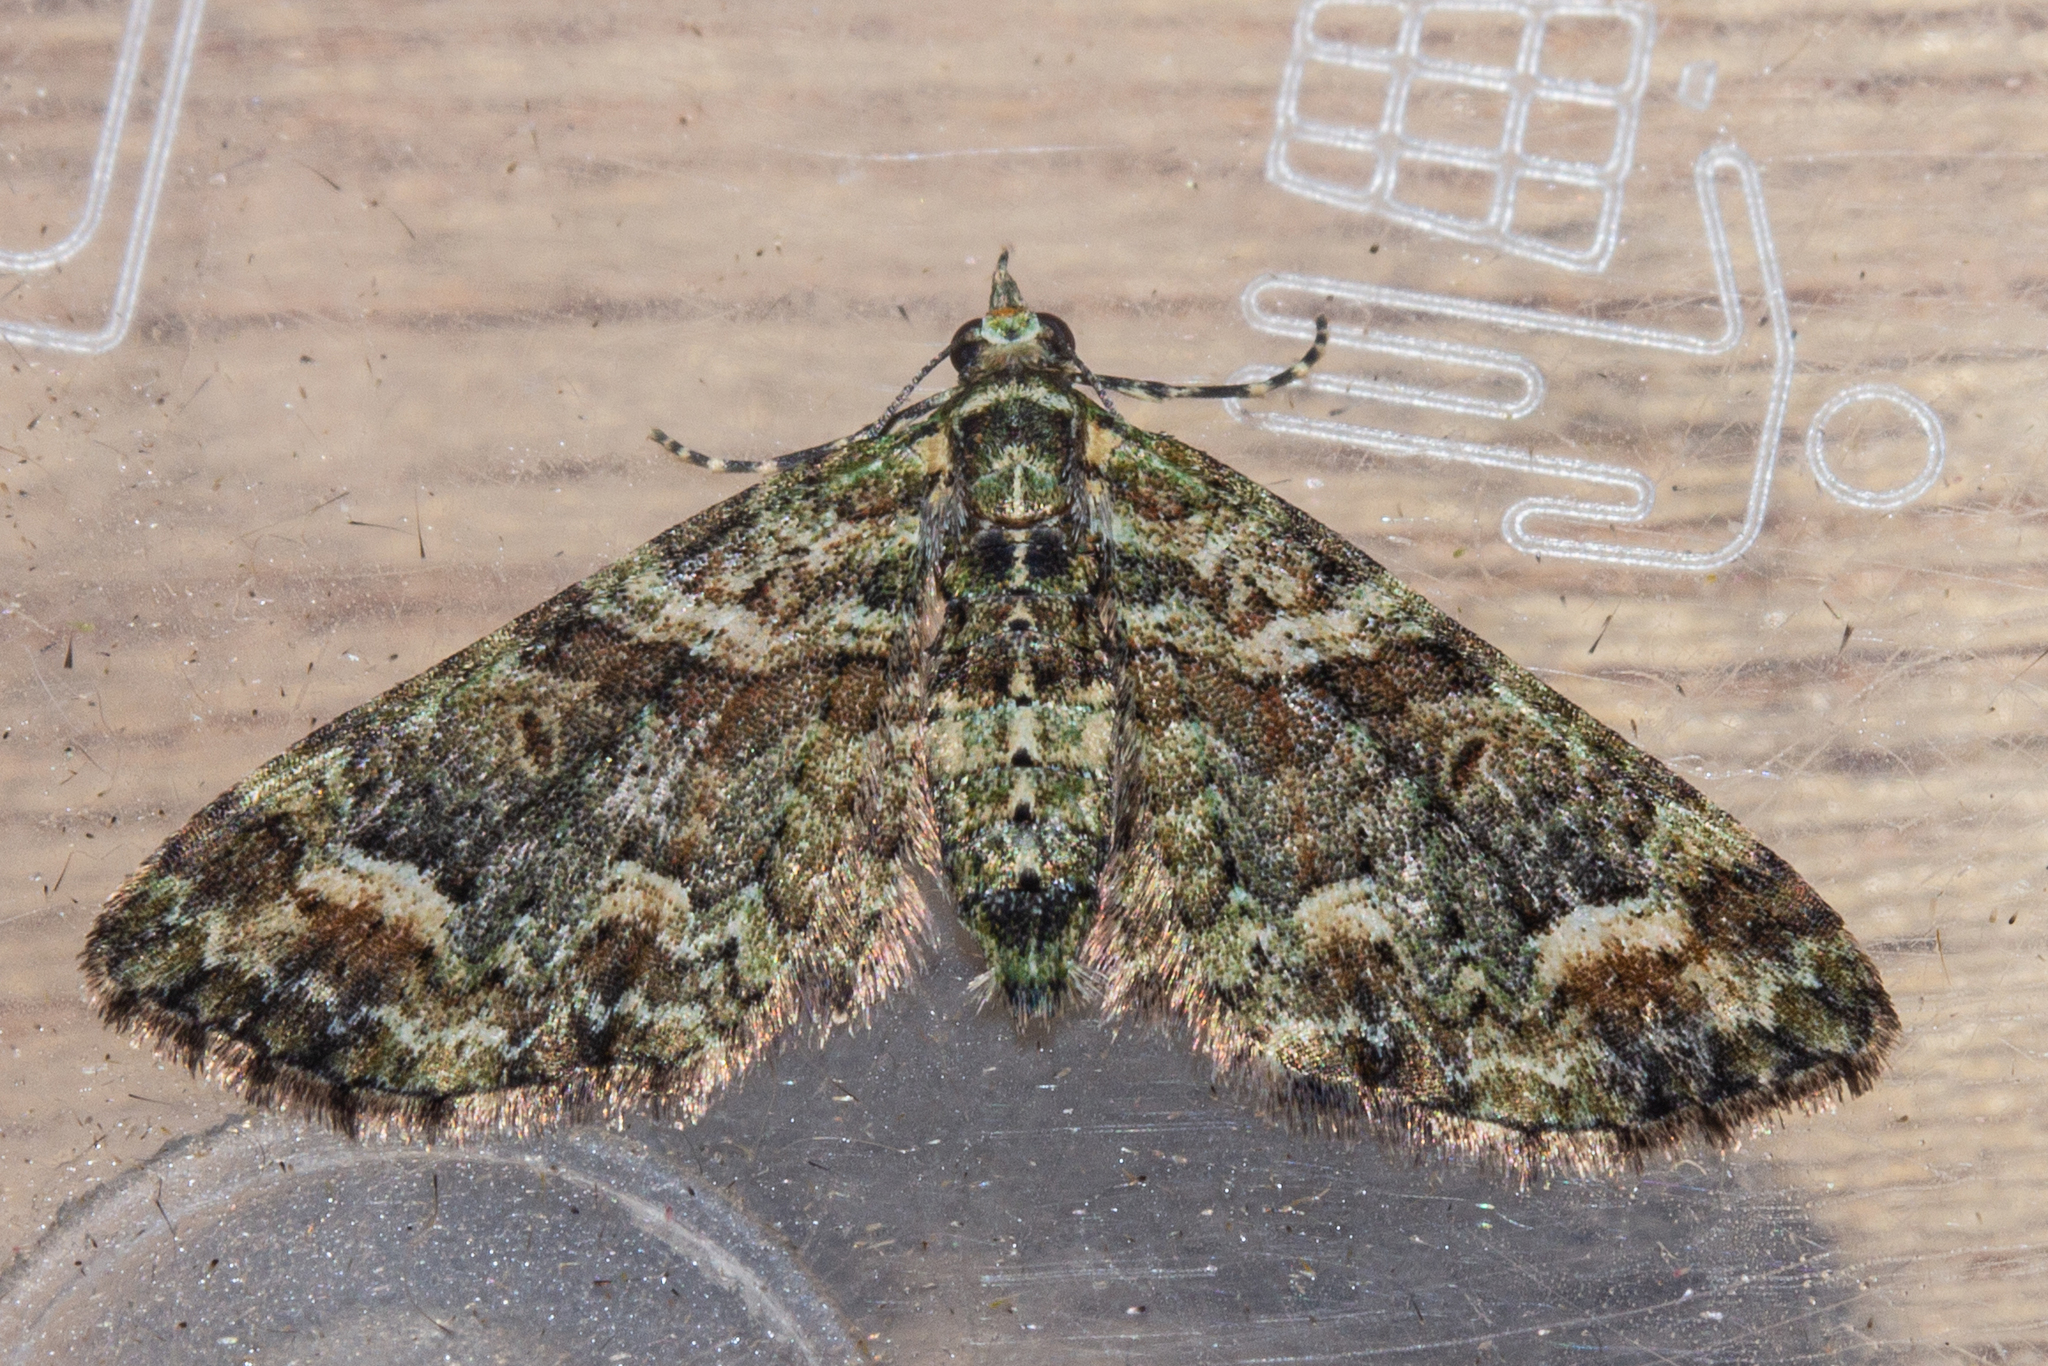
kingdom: Animalia
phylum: Arthropoda
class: Insecta
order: Lepidoptera
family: Geometridae
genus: Idaea
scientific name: Idaea mutanda
